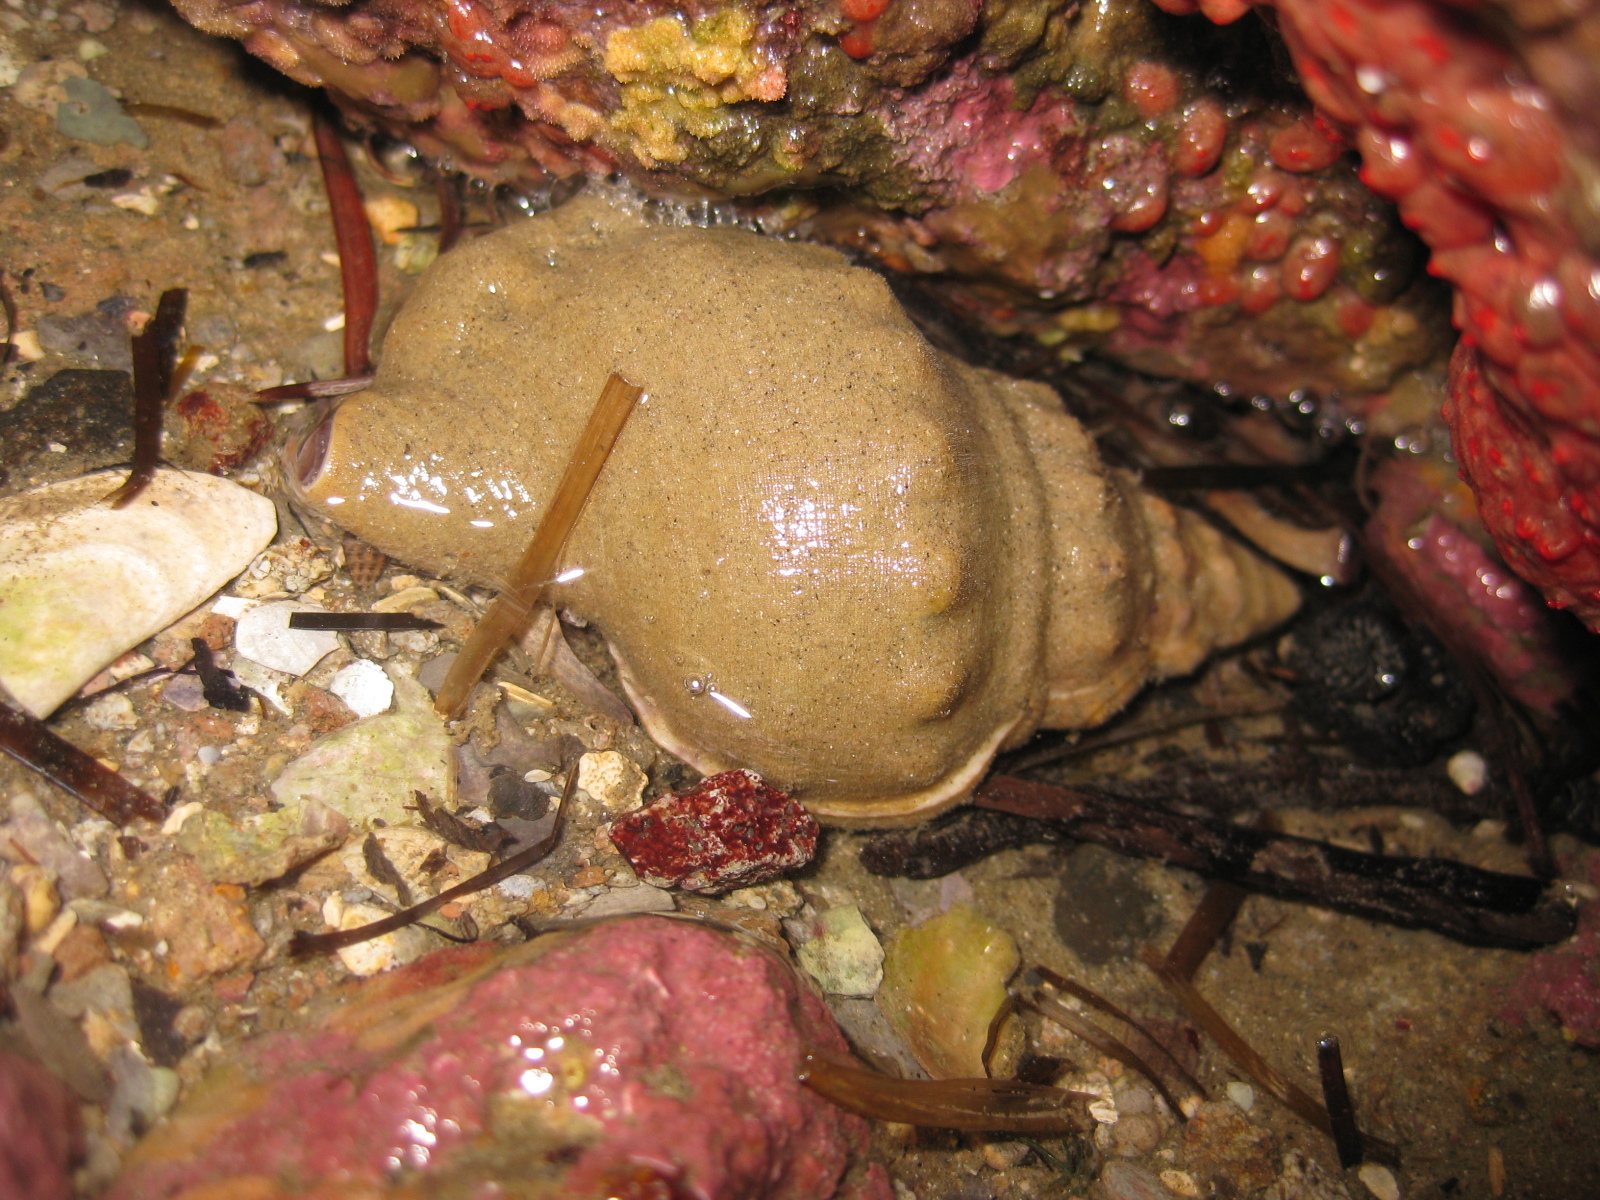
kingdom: Animalia
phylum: Mollusca
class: Gastropoda
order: Littorinimorpha
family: Ranellidae
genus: Ranella
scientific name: Ranella australasia
